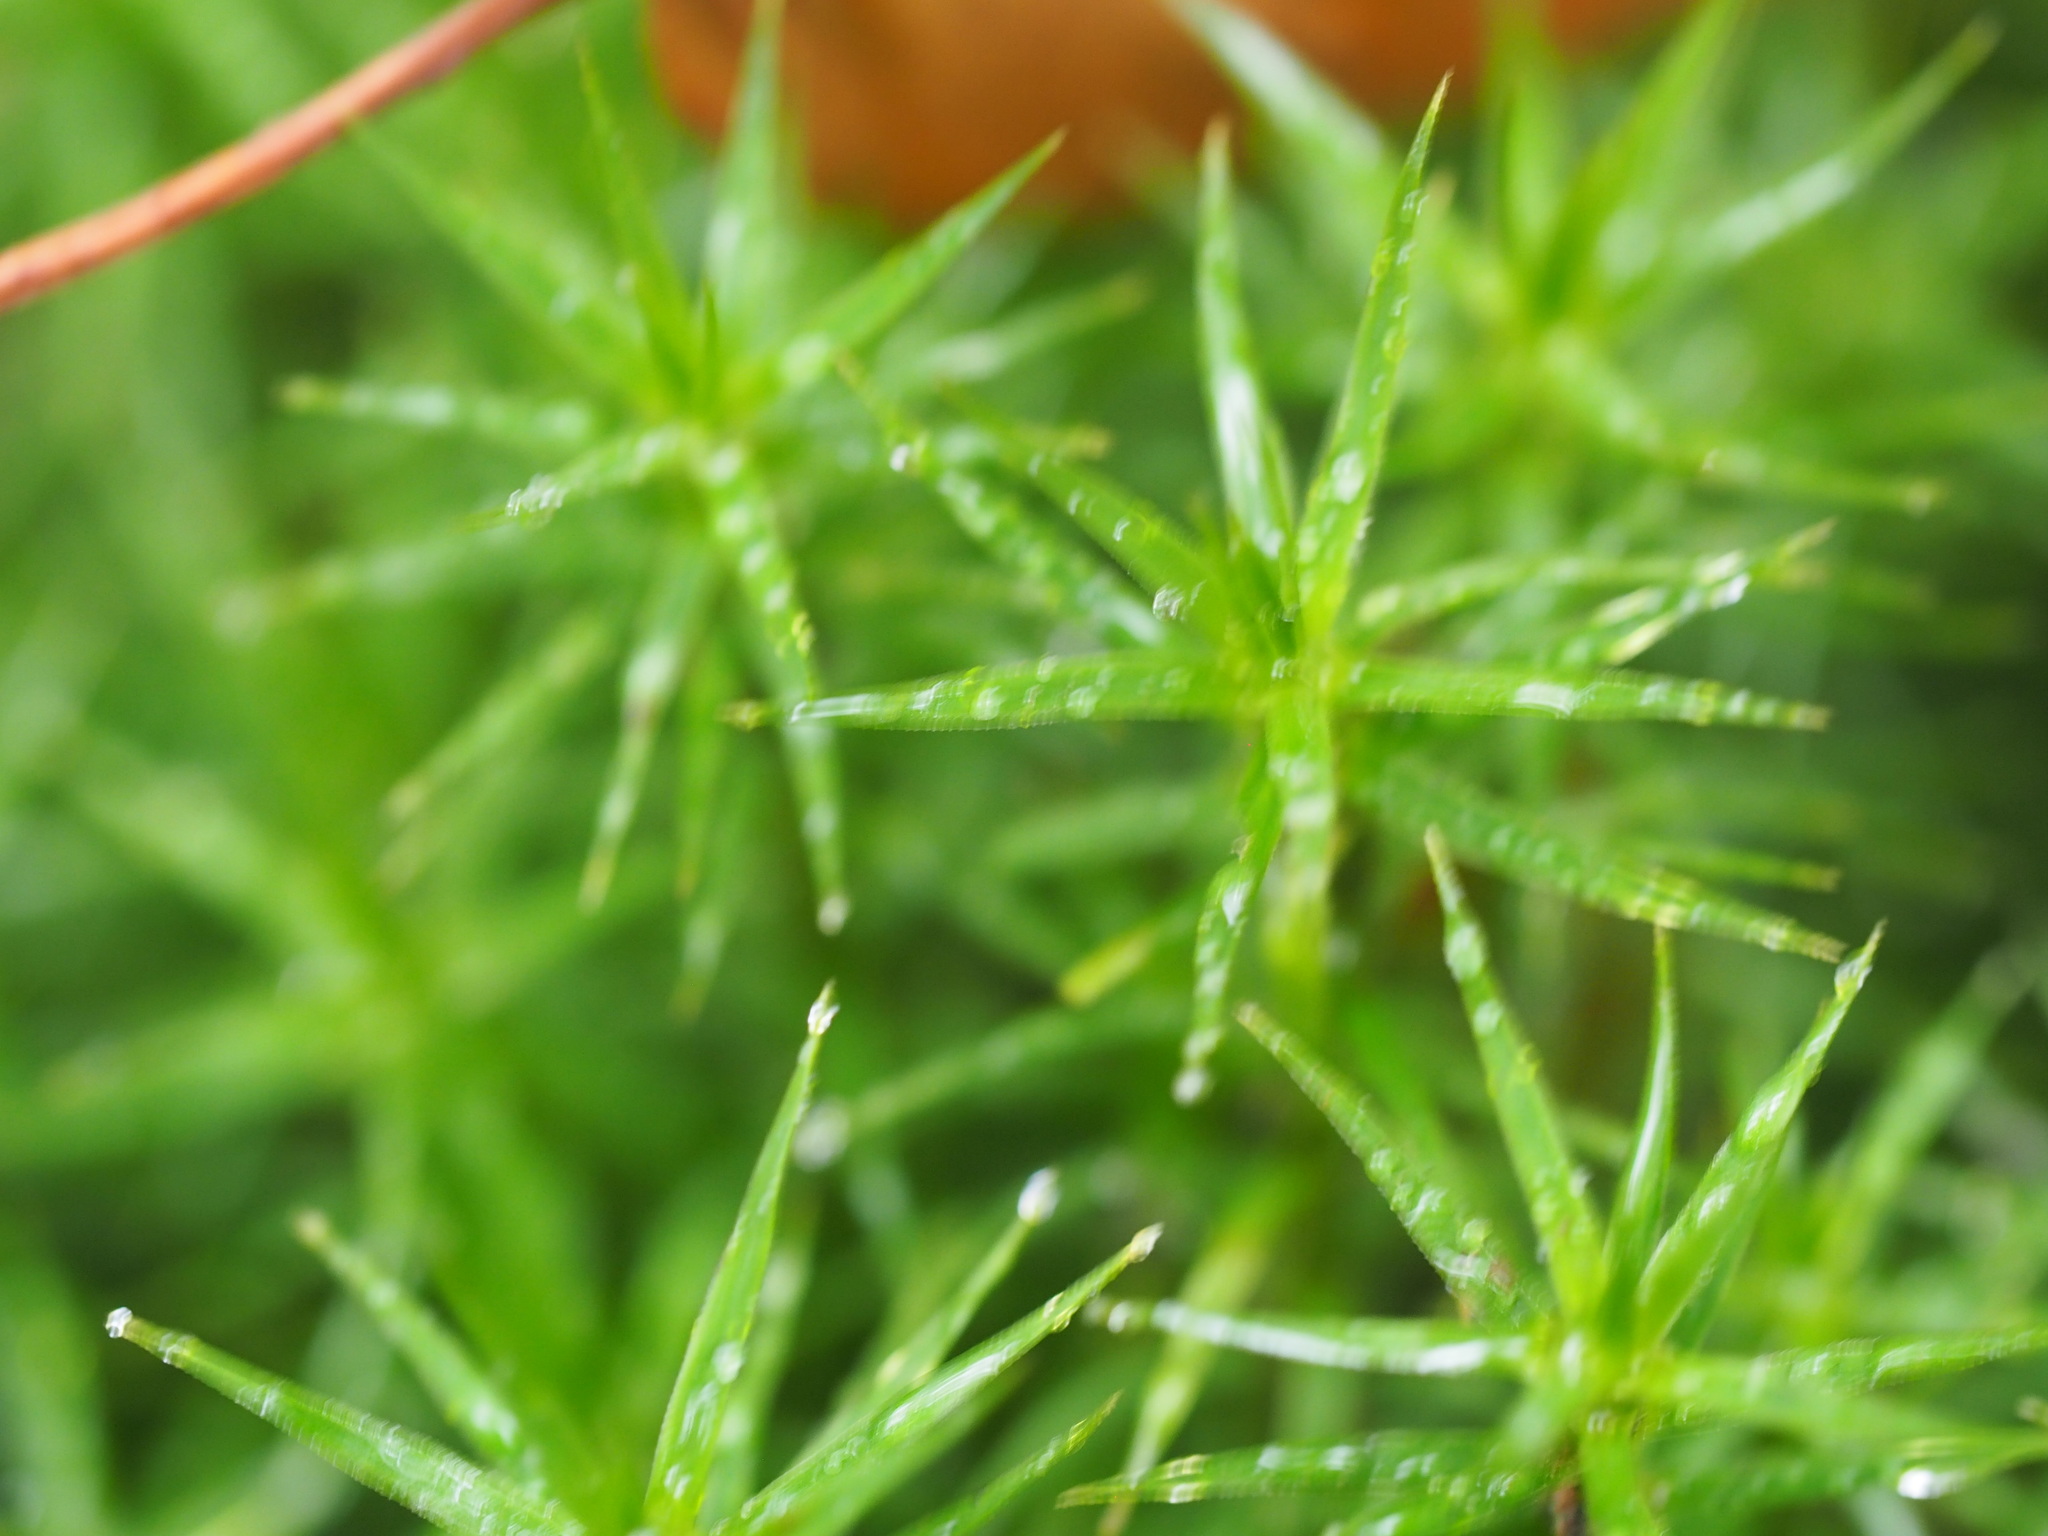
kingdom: Plantae
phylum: Bryophyta
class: Polytrichopsida
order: Polytrichales
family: Polytrichaceae
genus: Polytrichum
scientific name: Polytrichum formosum
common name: Bank haircap moss
